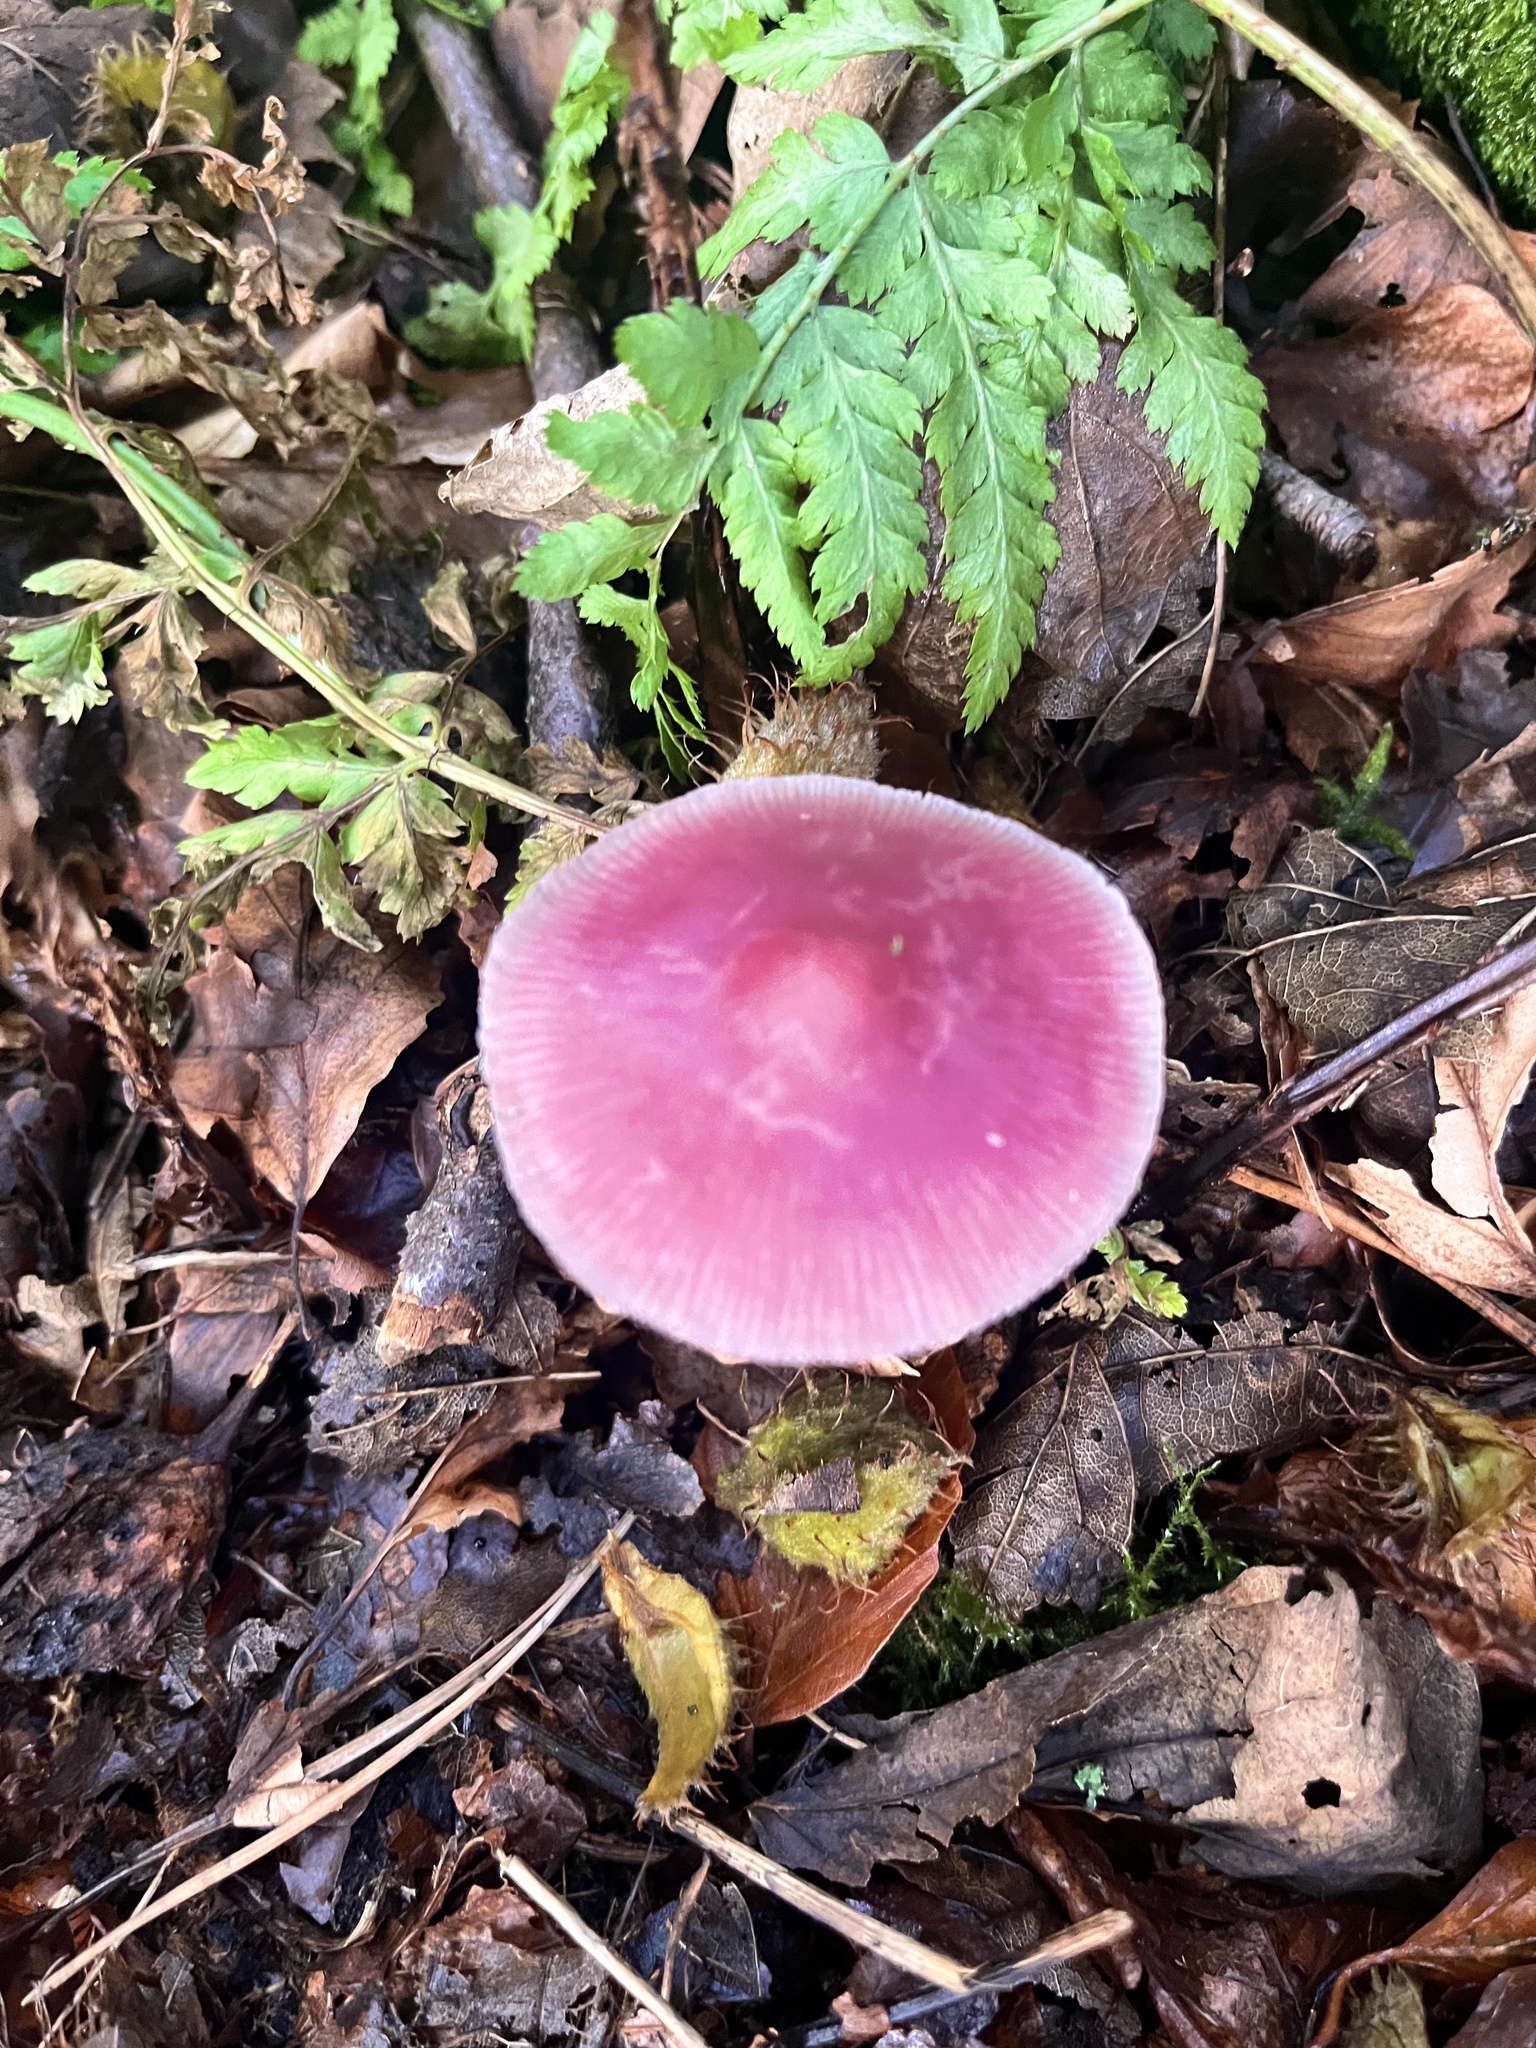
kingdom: Fungi
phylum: Basidiomycota
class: Agaricomycetes
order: Agaricales
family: Mycenaceae
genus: Mycena
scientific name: Mycena rosea
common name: Rosy bonnet
